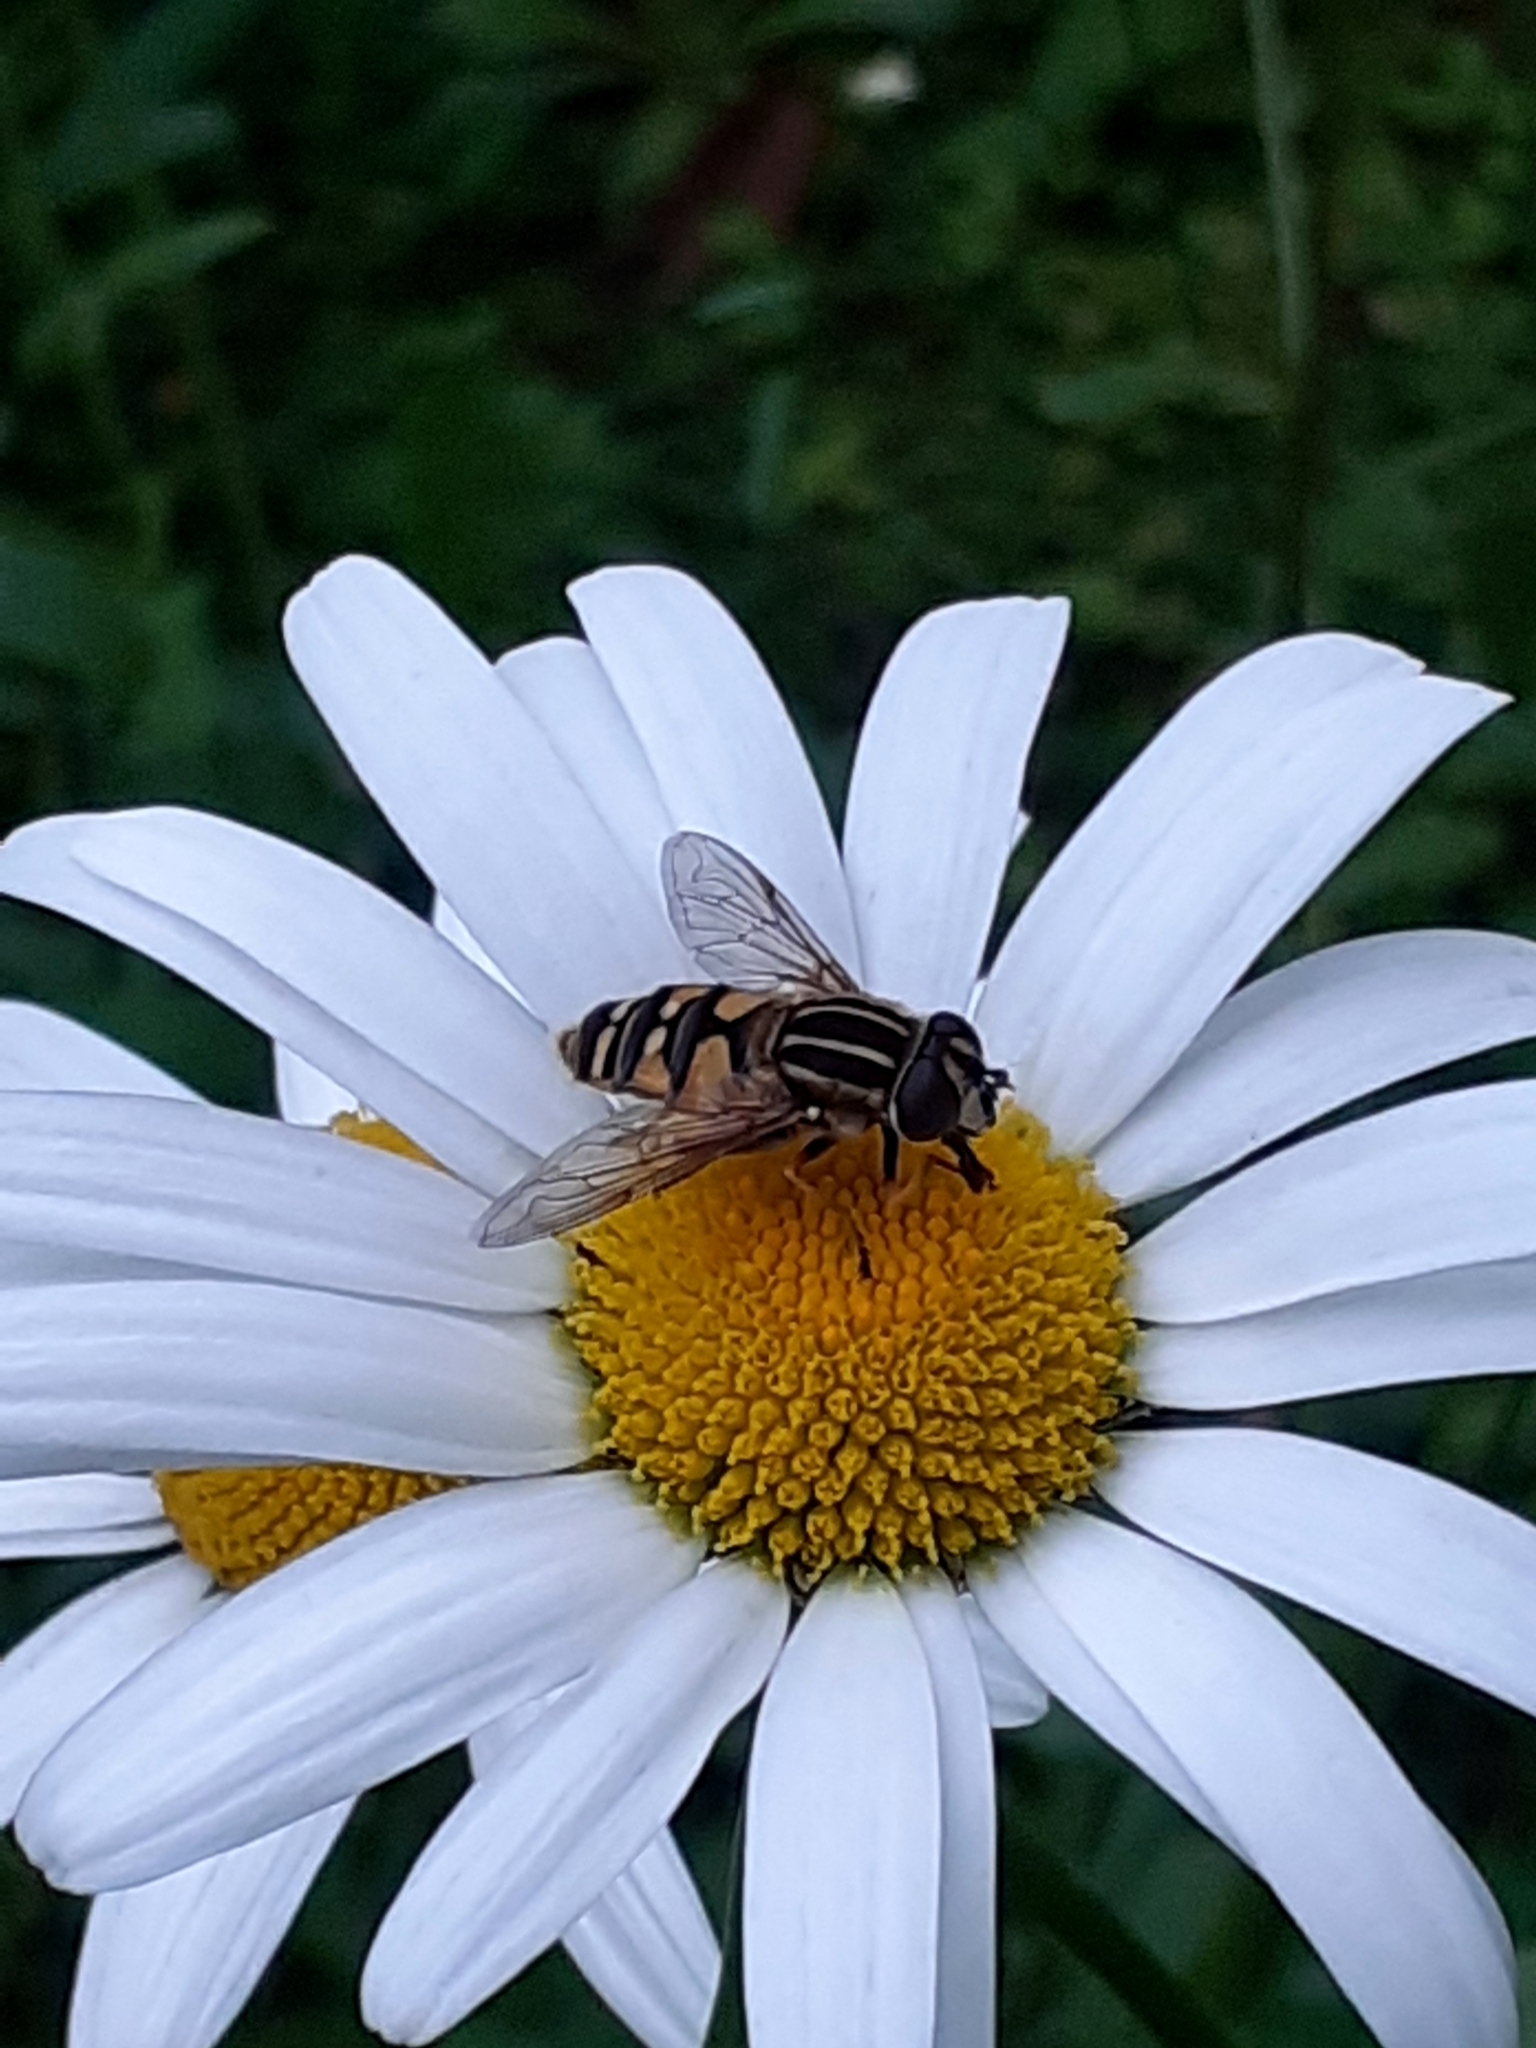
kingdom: Animalia
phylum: Arthropoda
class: Insecta
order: Diptera
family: Syrphidae
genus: Helophilus
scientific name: Helophilus pendulus
